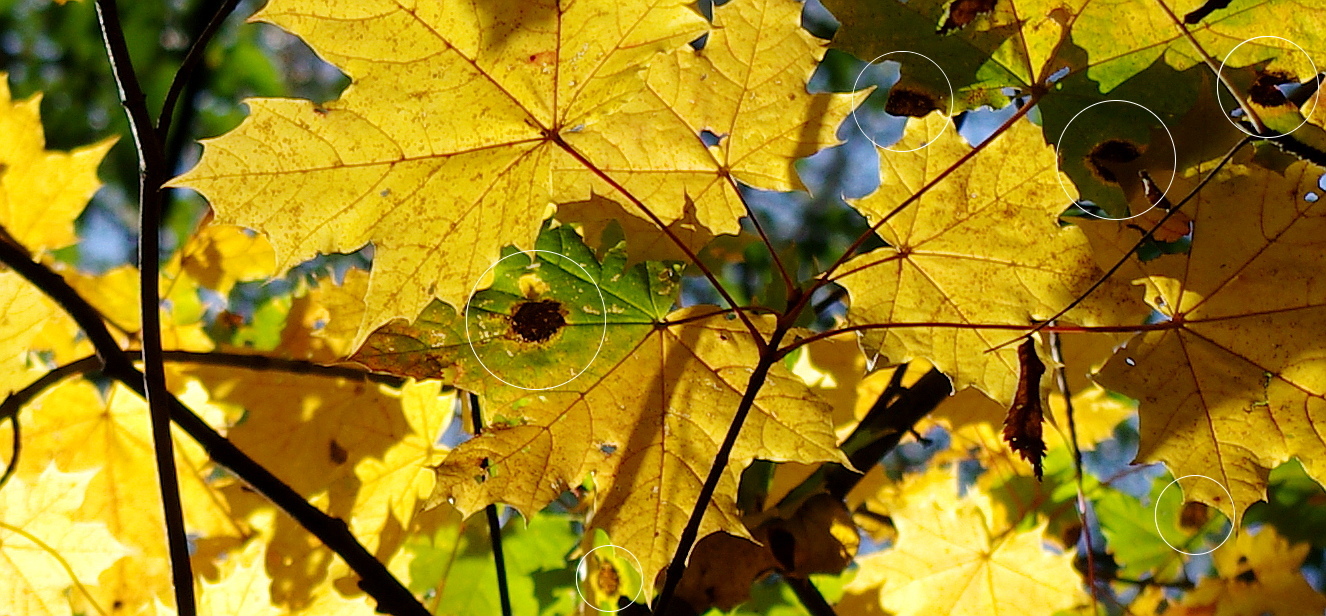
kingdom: Fungi
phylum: Ascomycota
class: Leotiomycetes
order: Rhytismatales
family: Rhytismataceae
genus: Rhytisma
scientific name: Rhytisma acerinum
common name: European tar spot
